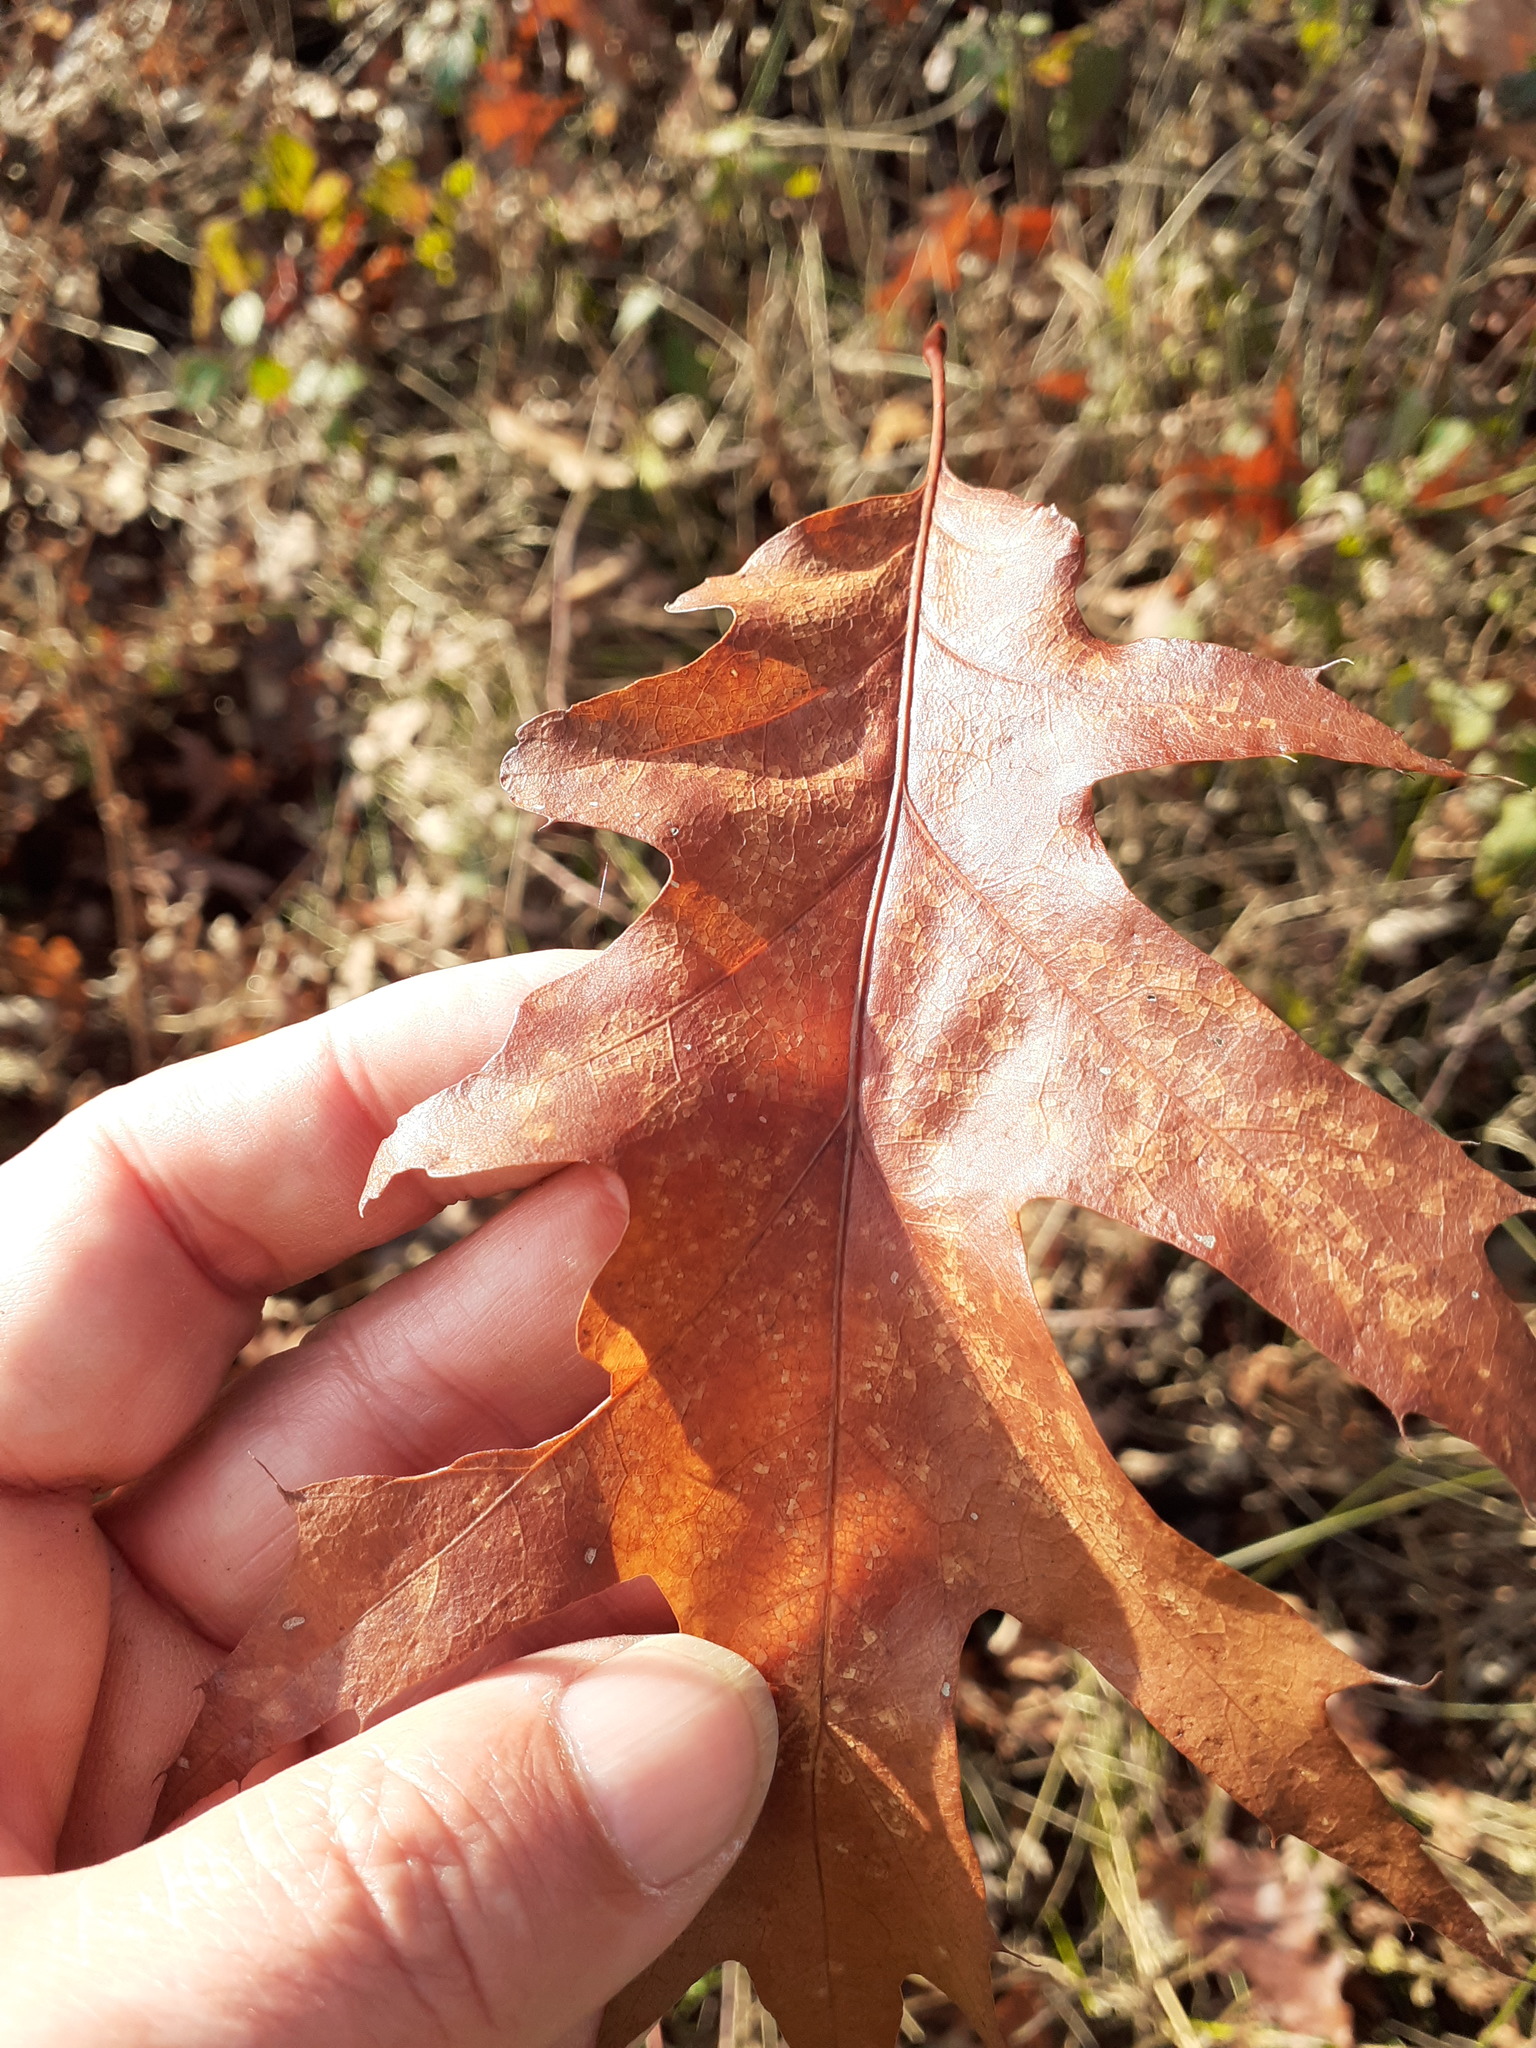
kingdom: Plantae
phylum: Tracheophyta
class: Magnoliopsida
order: Fagales
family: Fagaceae
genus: Quercus
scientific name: Quercus rubra
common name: Red oak
